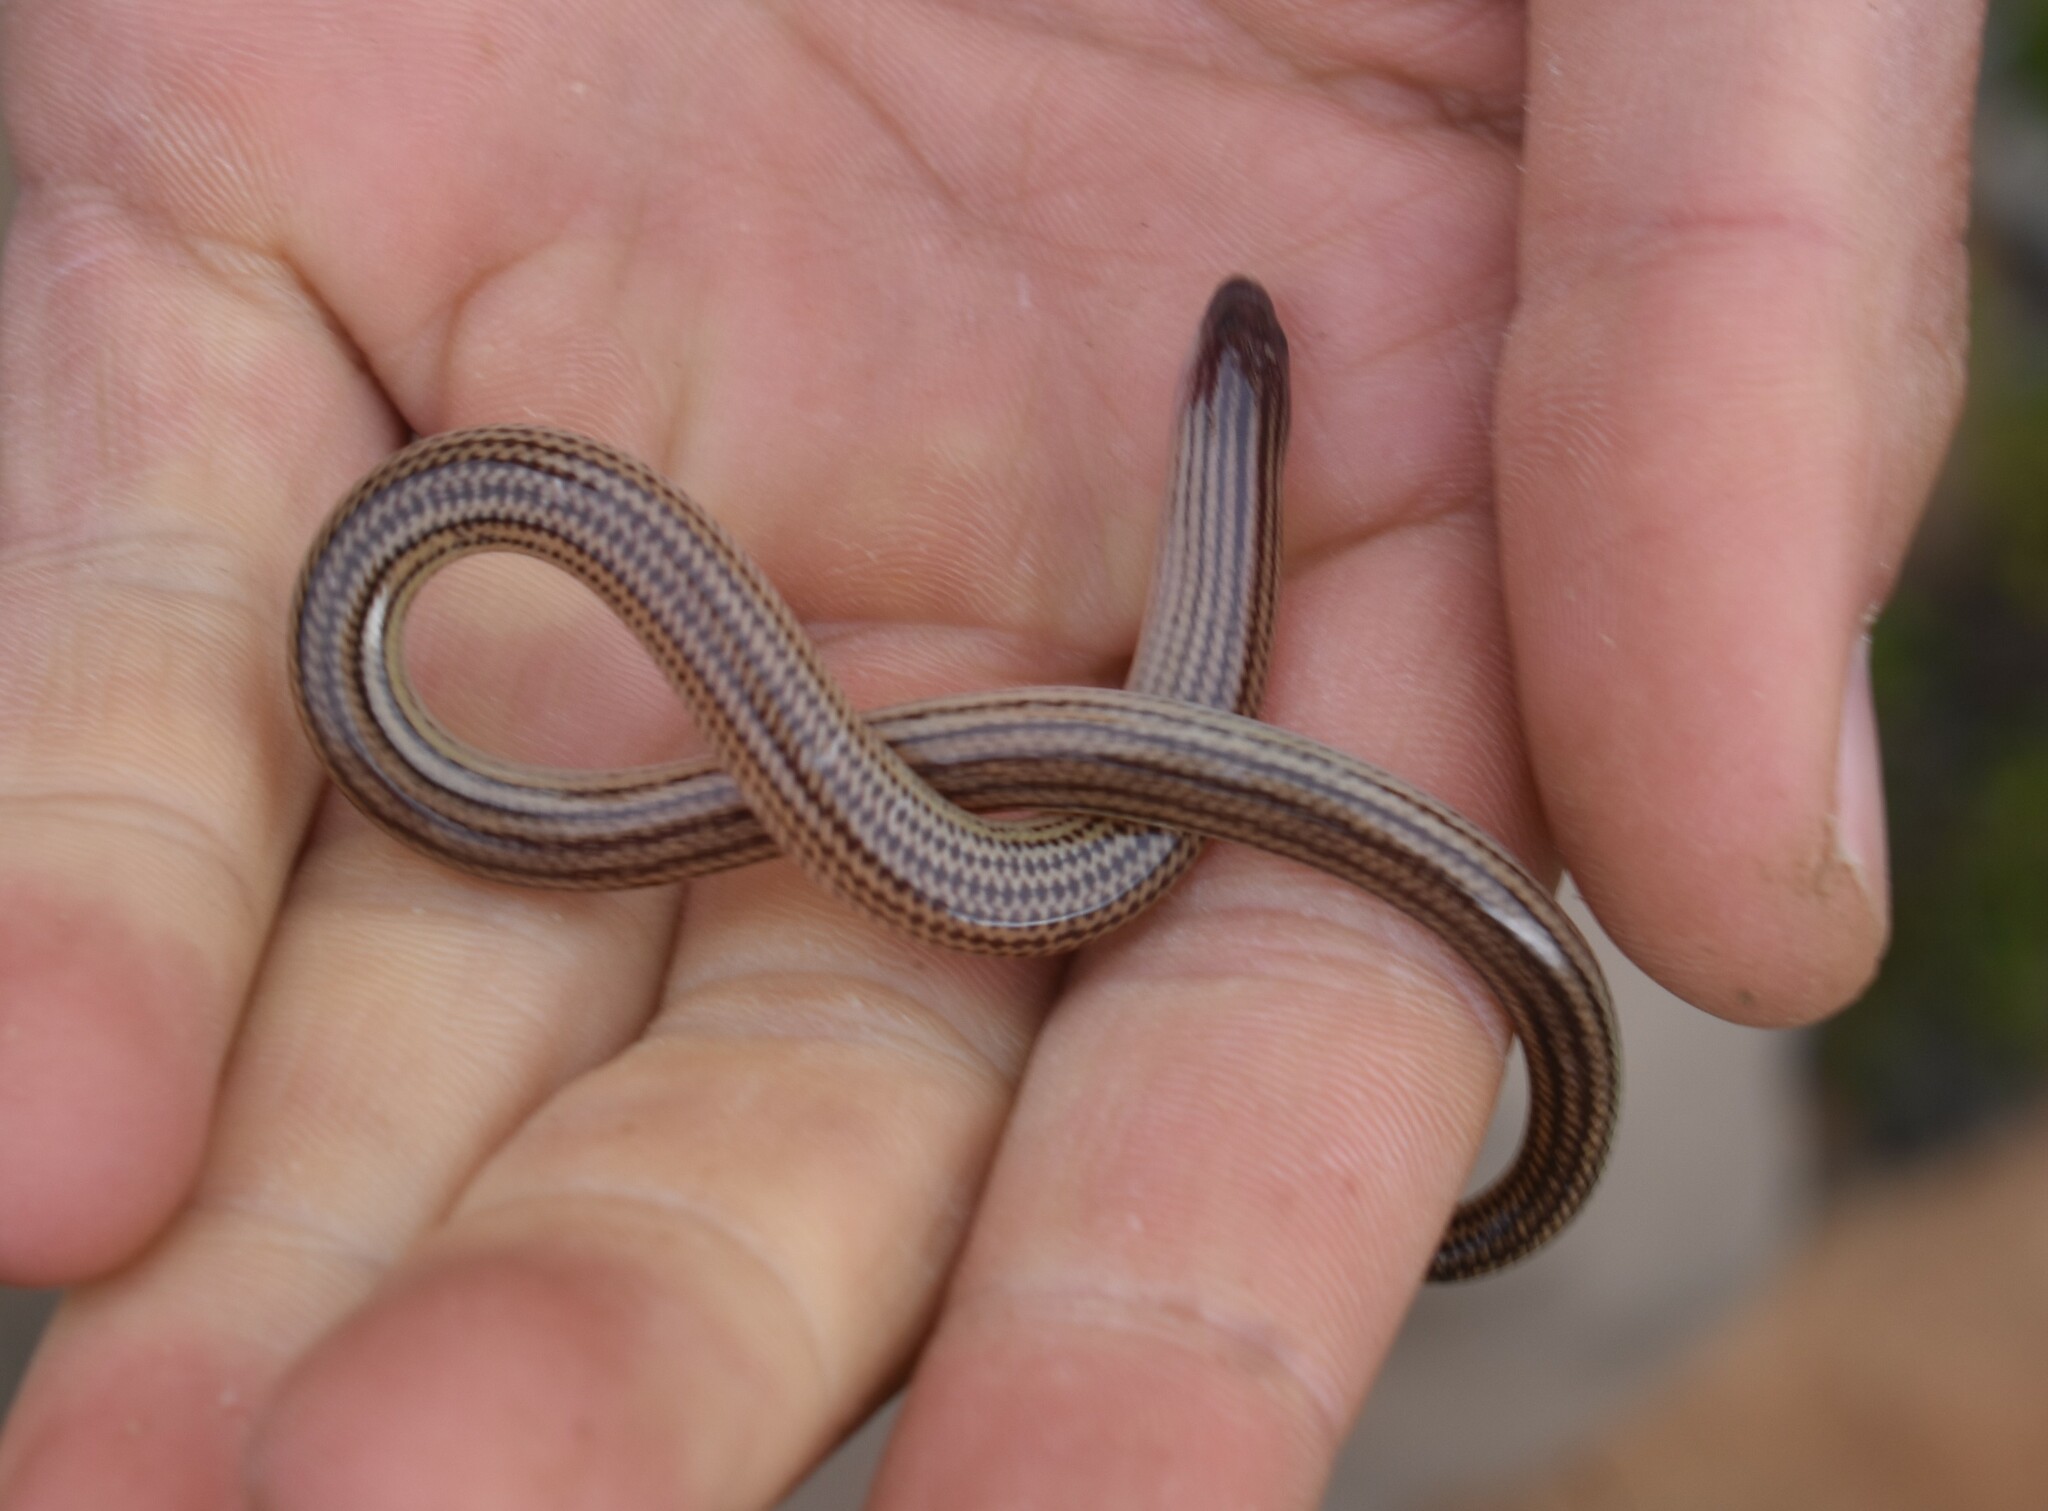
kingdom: Animalia
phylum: Chordata
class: Squamata
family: Scincidae
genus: Acontias
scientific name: Acontias meleagris
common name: Cape legless skink
